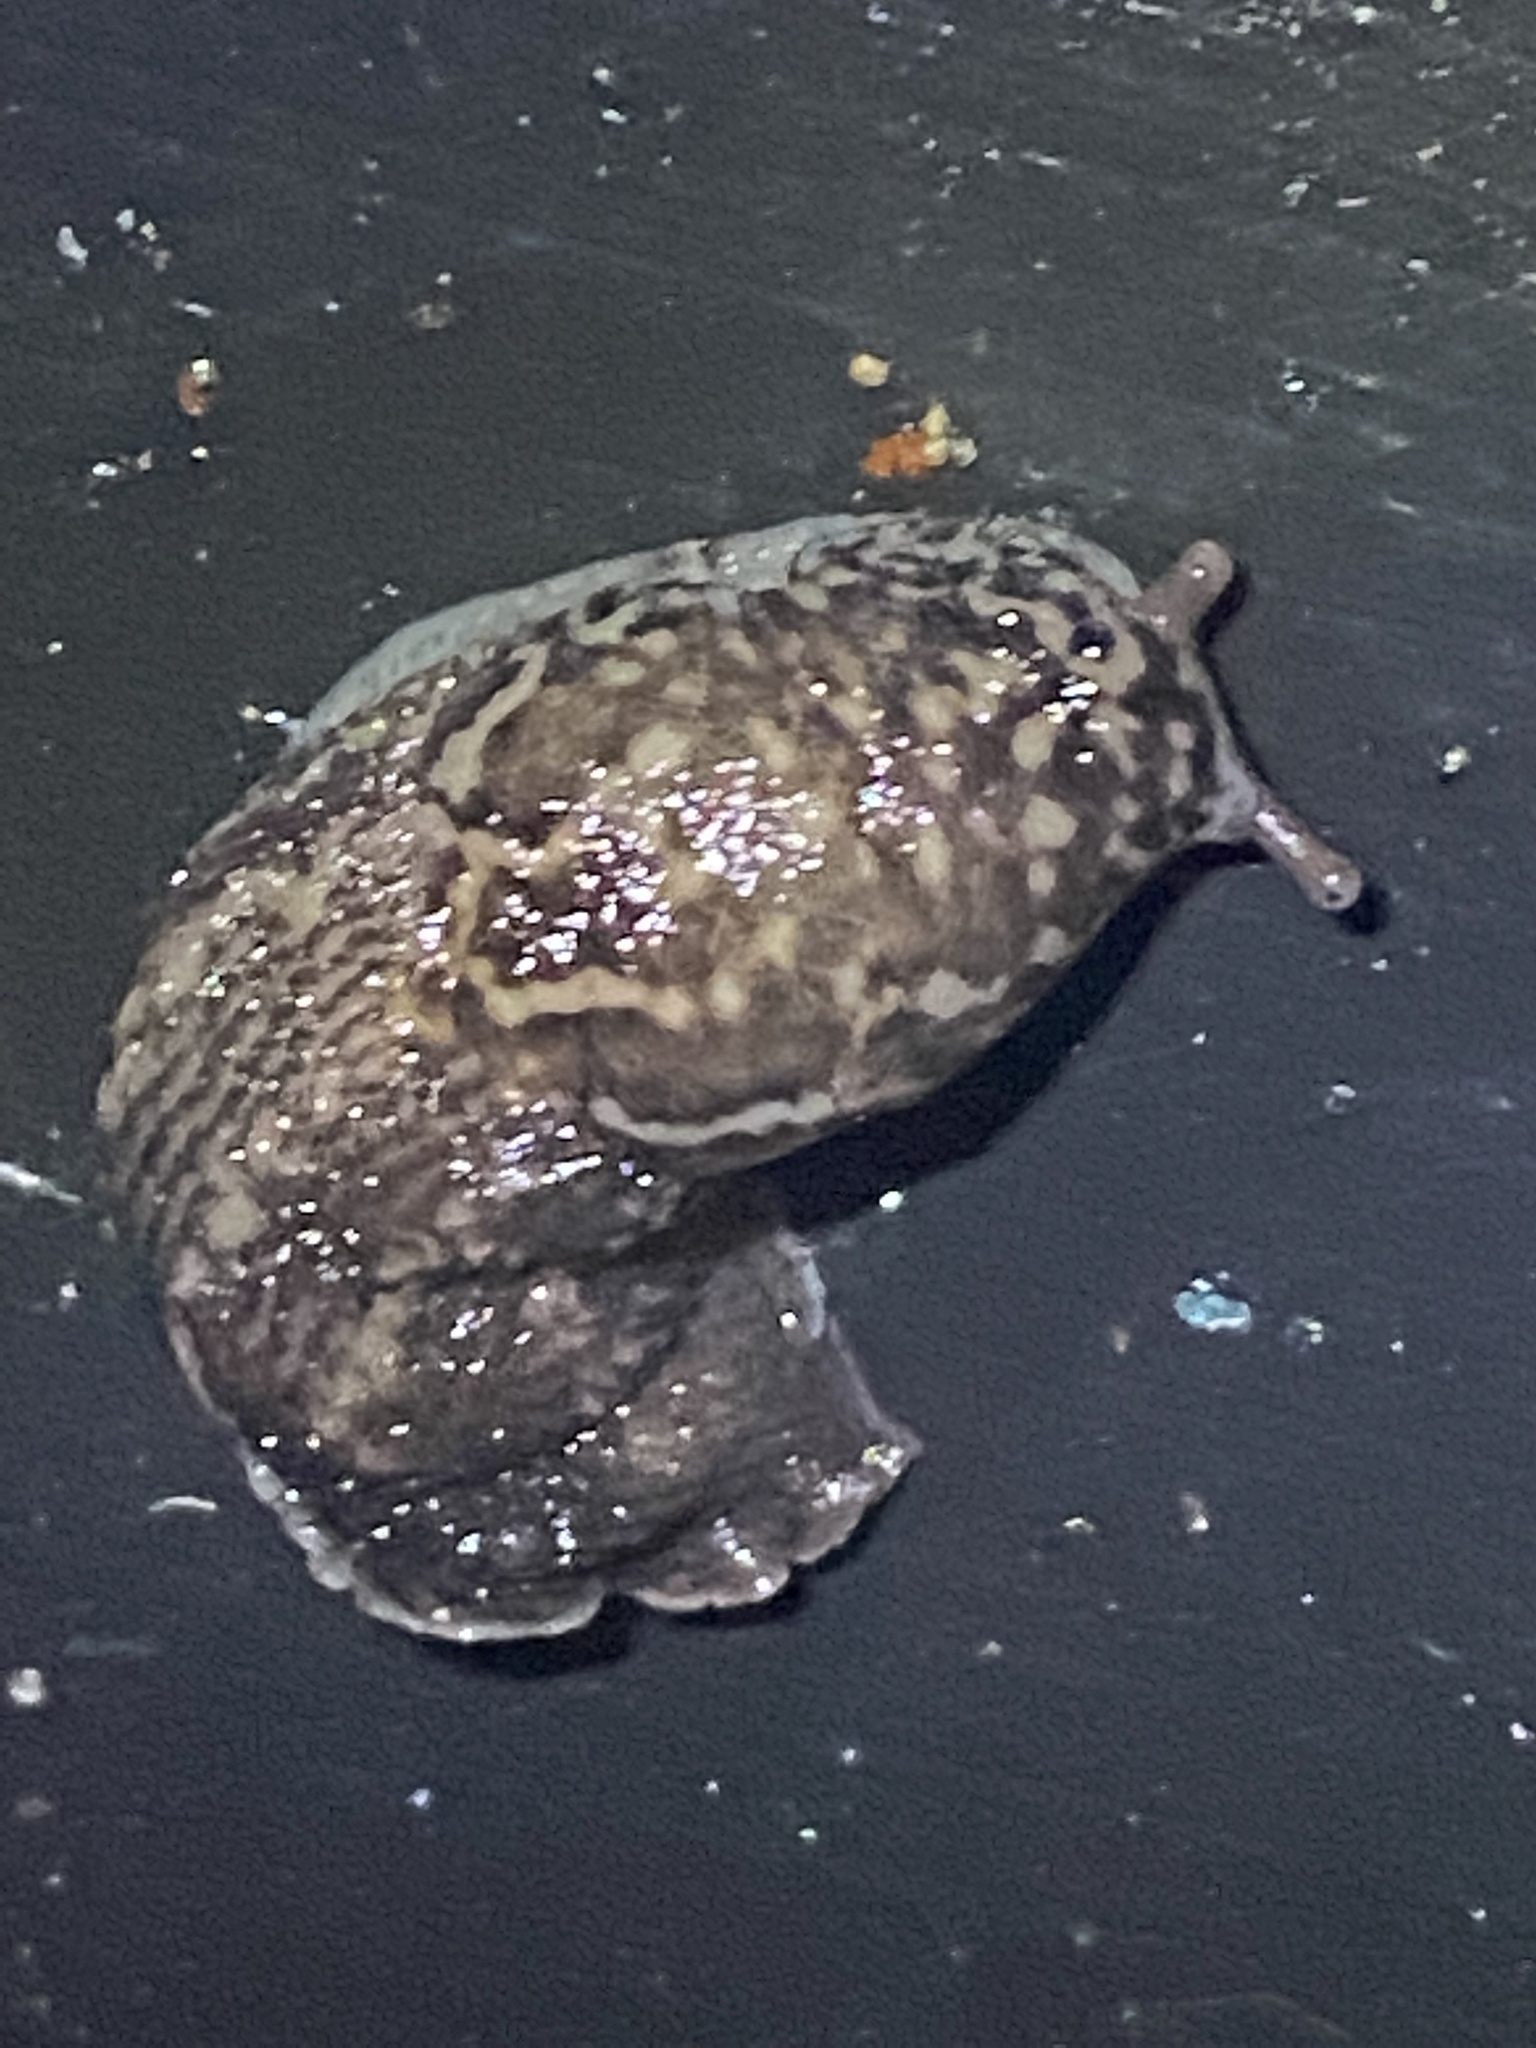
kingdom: Animalia
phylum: Mollusca
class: Gastropoda
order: Stylommatophora
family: Limacidae
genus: Limax
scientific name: Limax maximus
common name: Great grey slug
